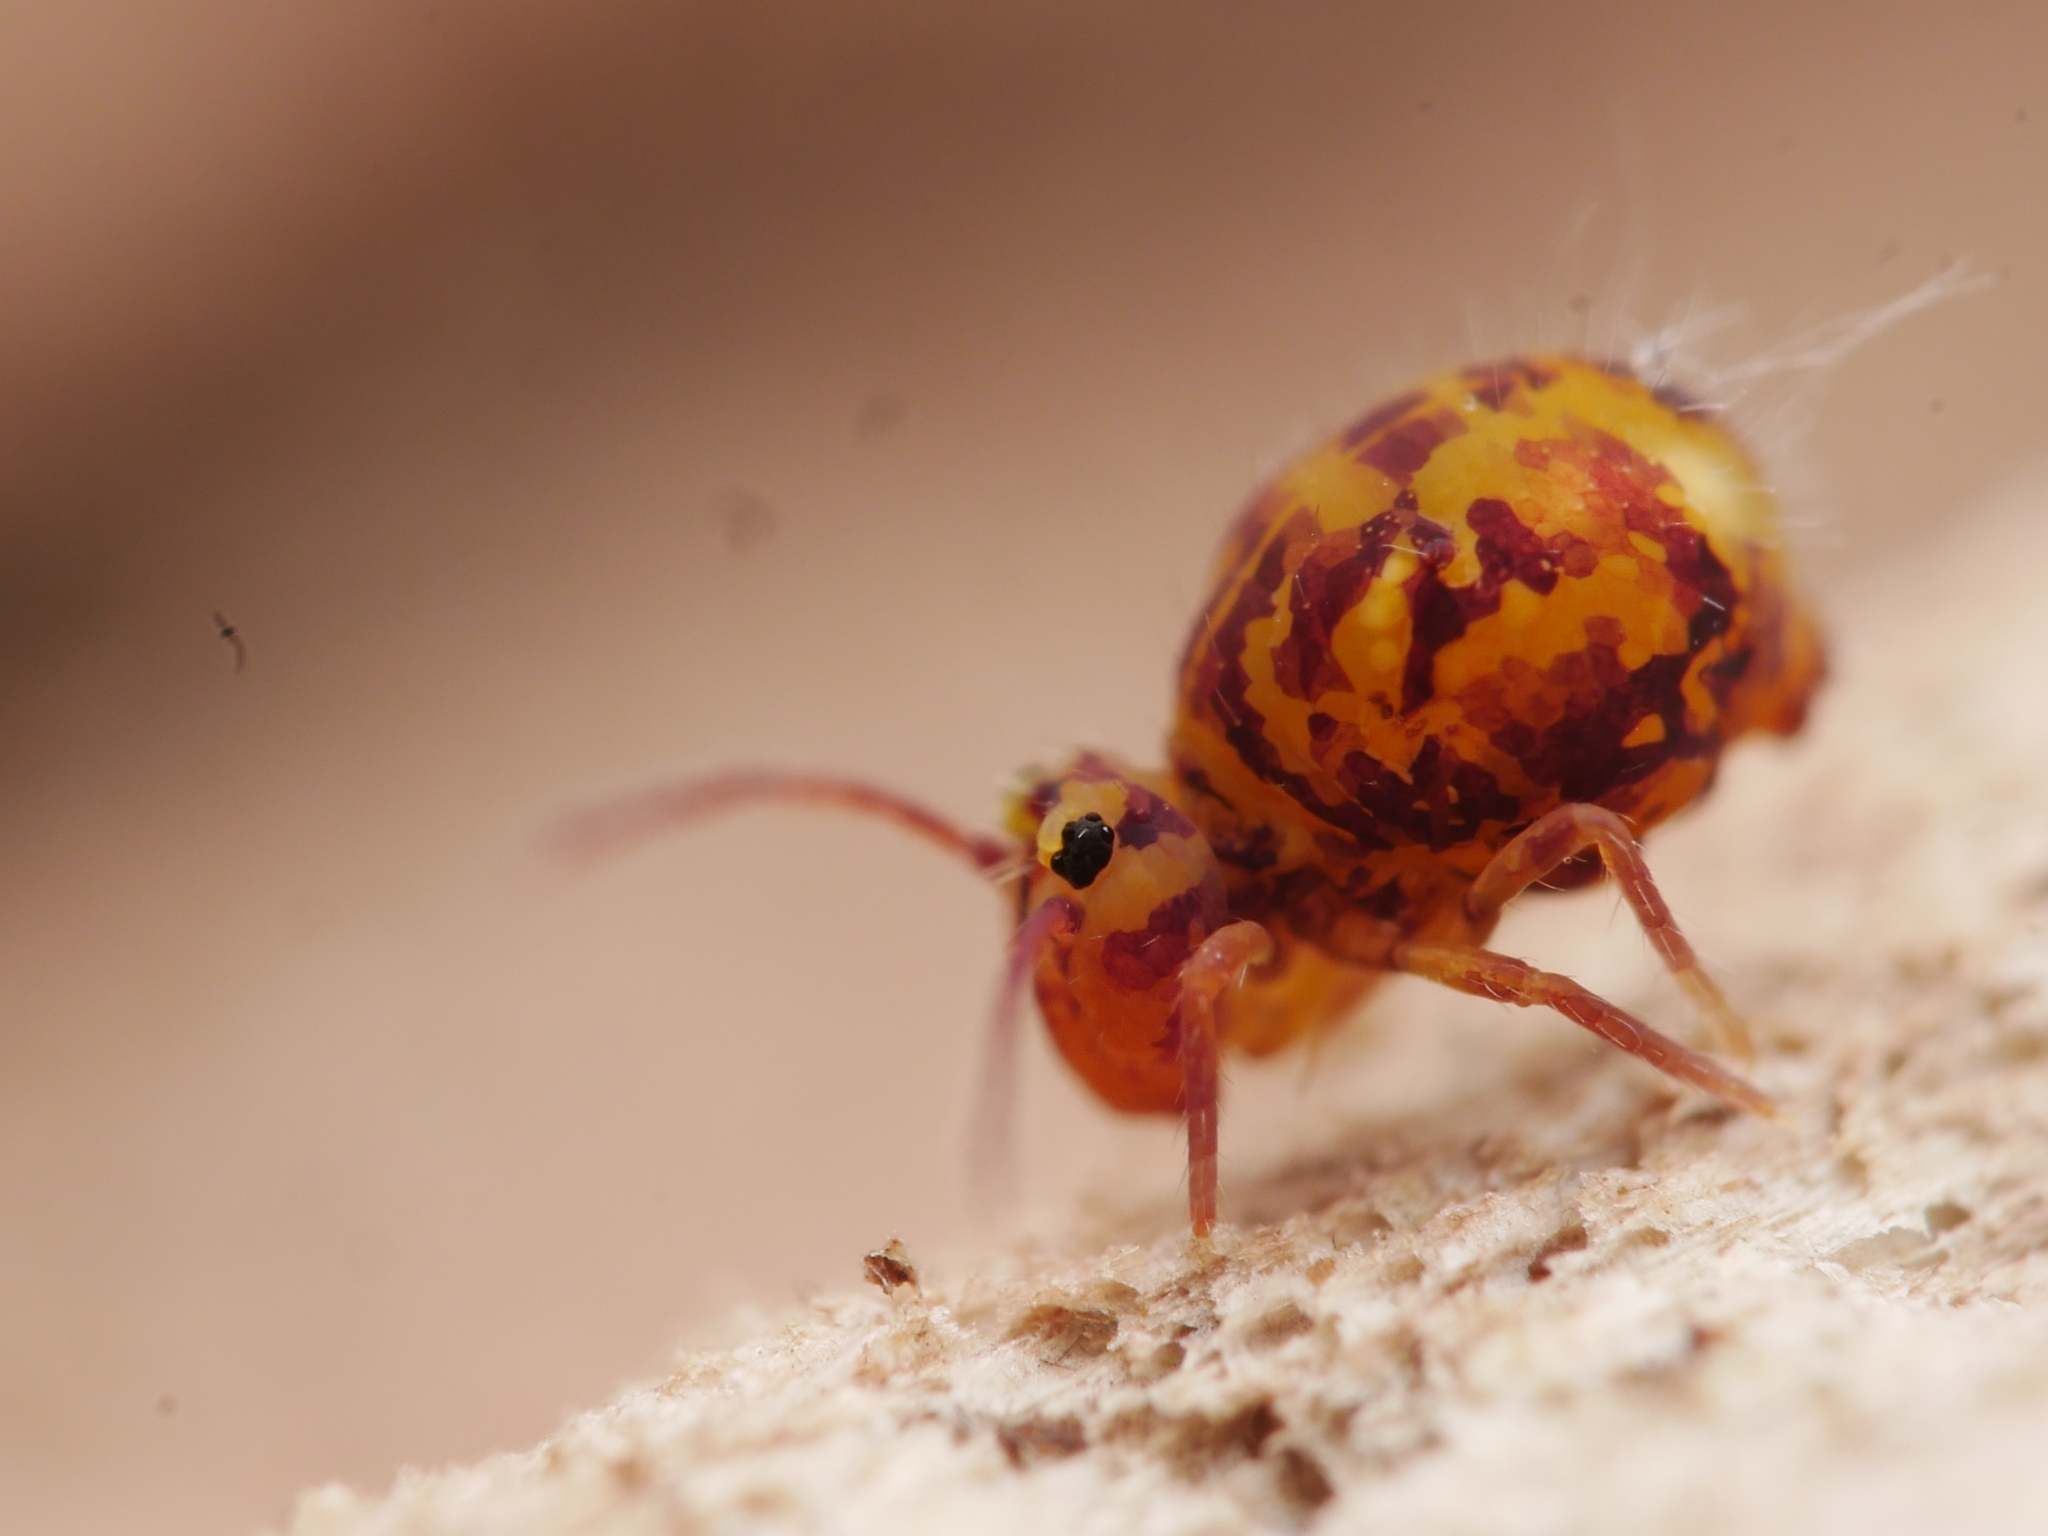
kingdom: Animalia
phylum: Arthropoda
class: Collembola
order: Symphypleona
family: Dicyrtomidae
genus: Dicyrtomina
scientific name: Dicyrtomina ornata
